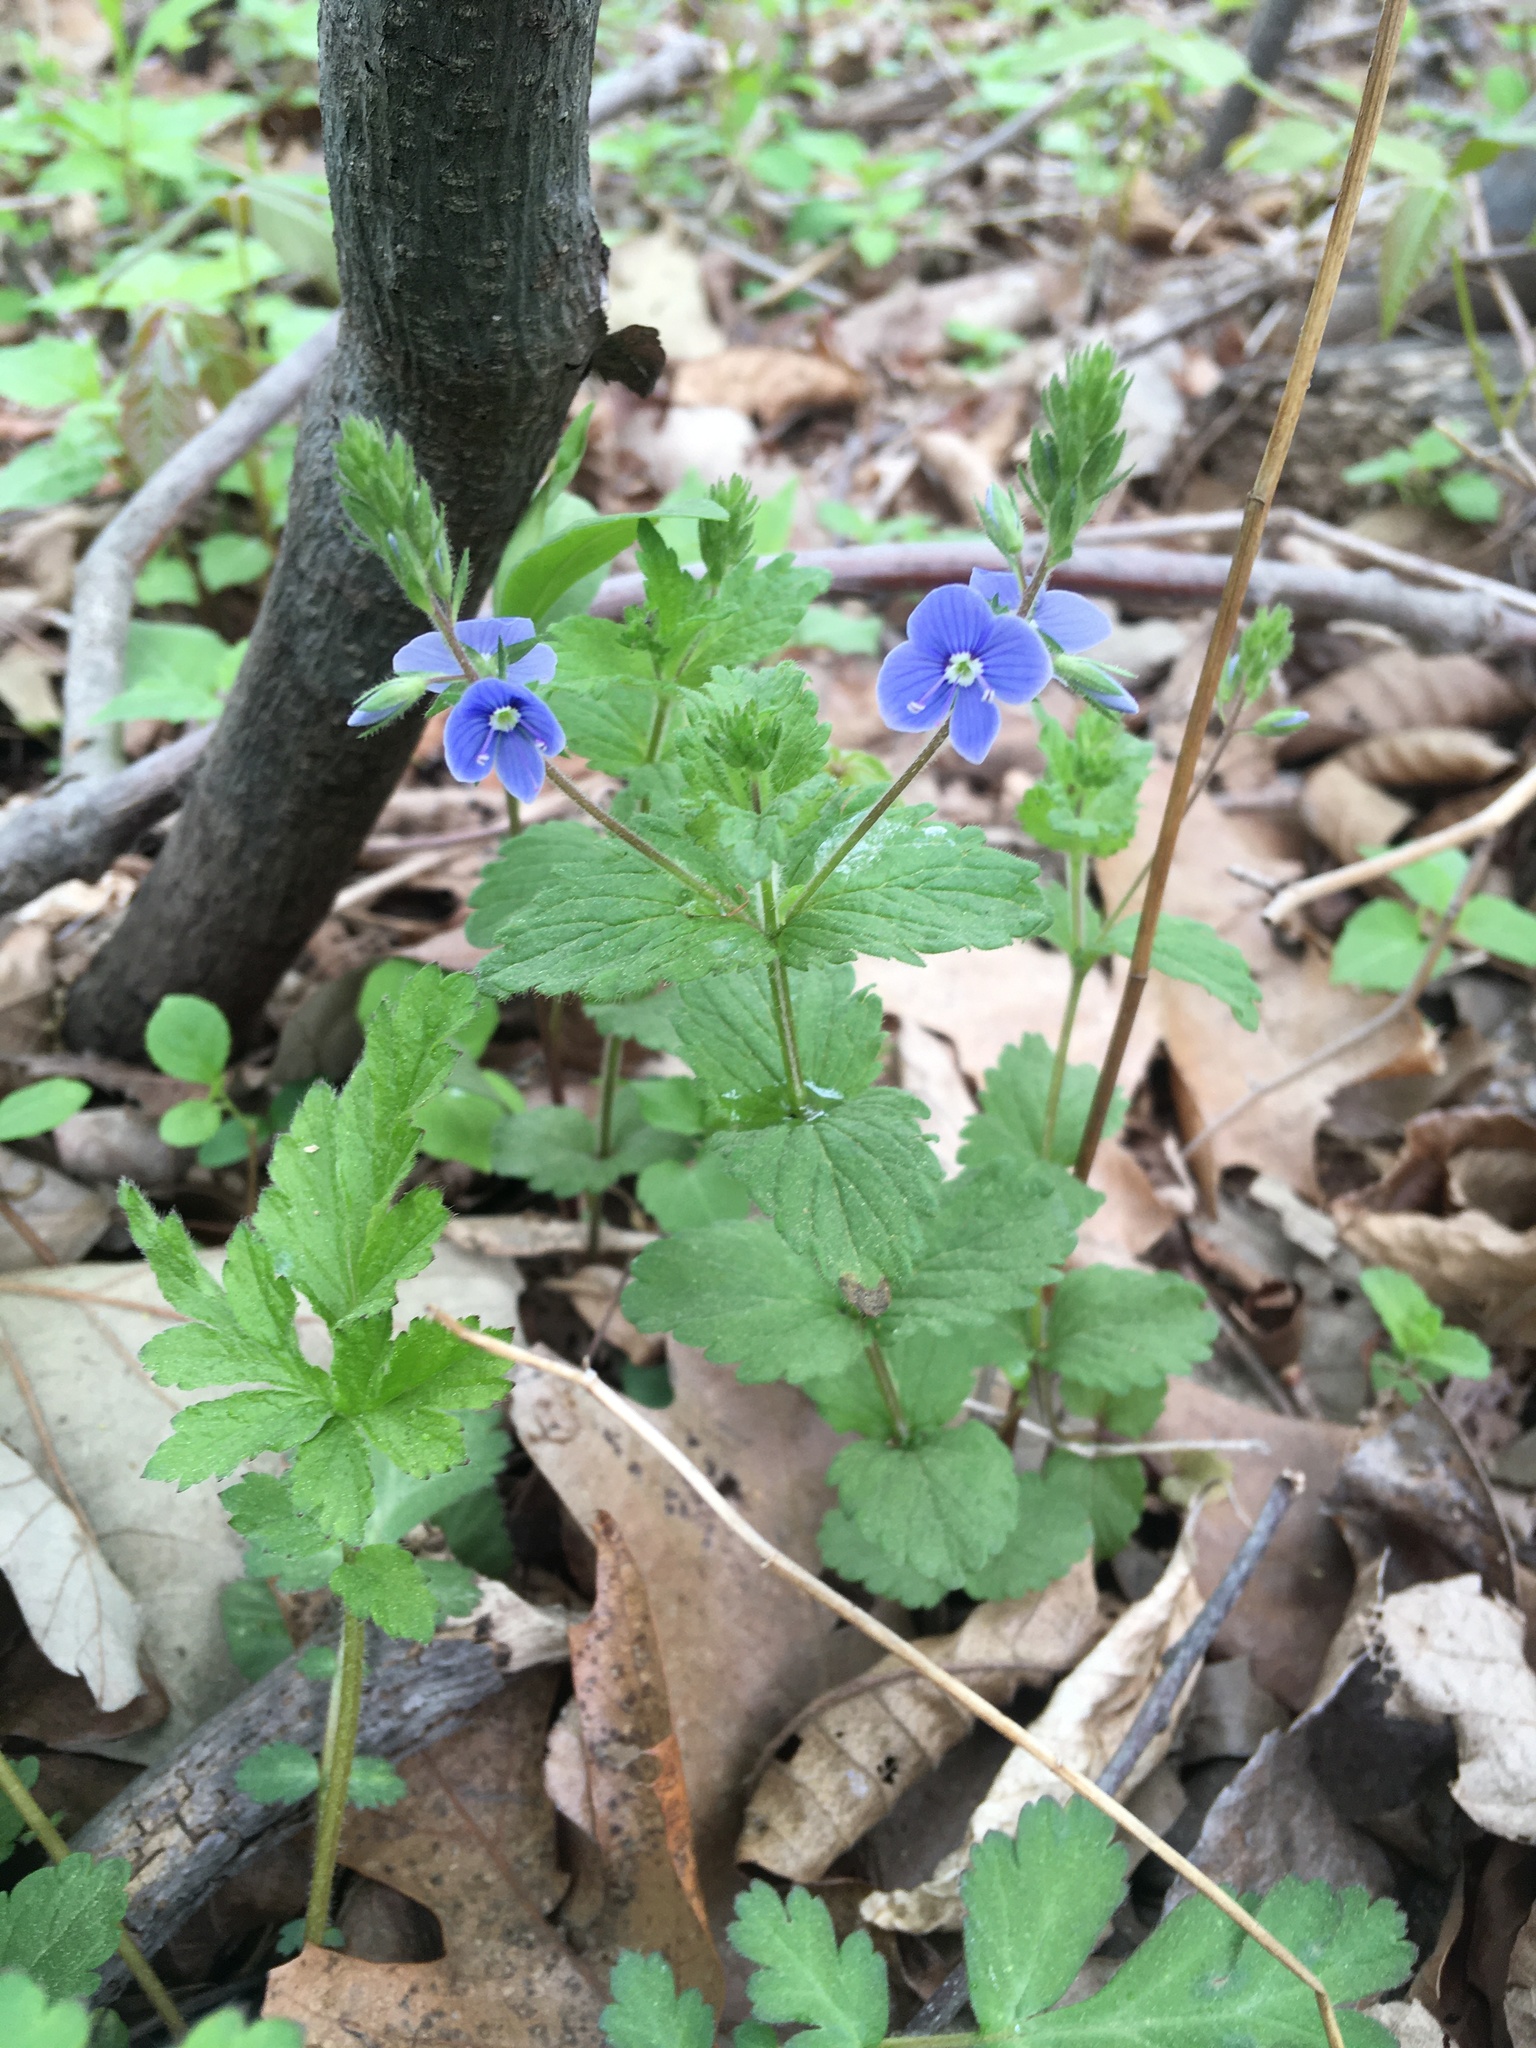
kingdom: Plantae
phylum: Tracheophyta
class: Magnoliopsida
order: Lamiales
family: Plantaginaceae
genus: Veronica
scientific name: Veronica chamaedrys
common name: Germander speedwell
